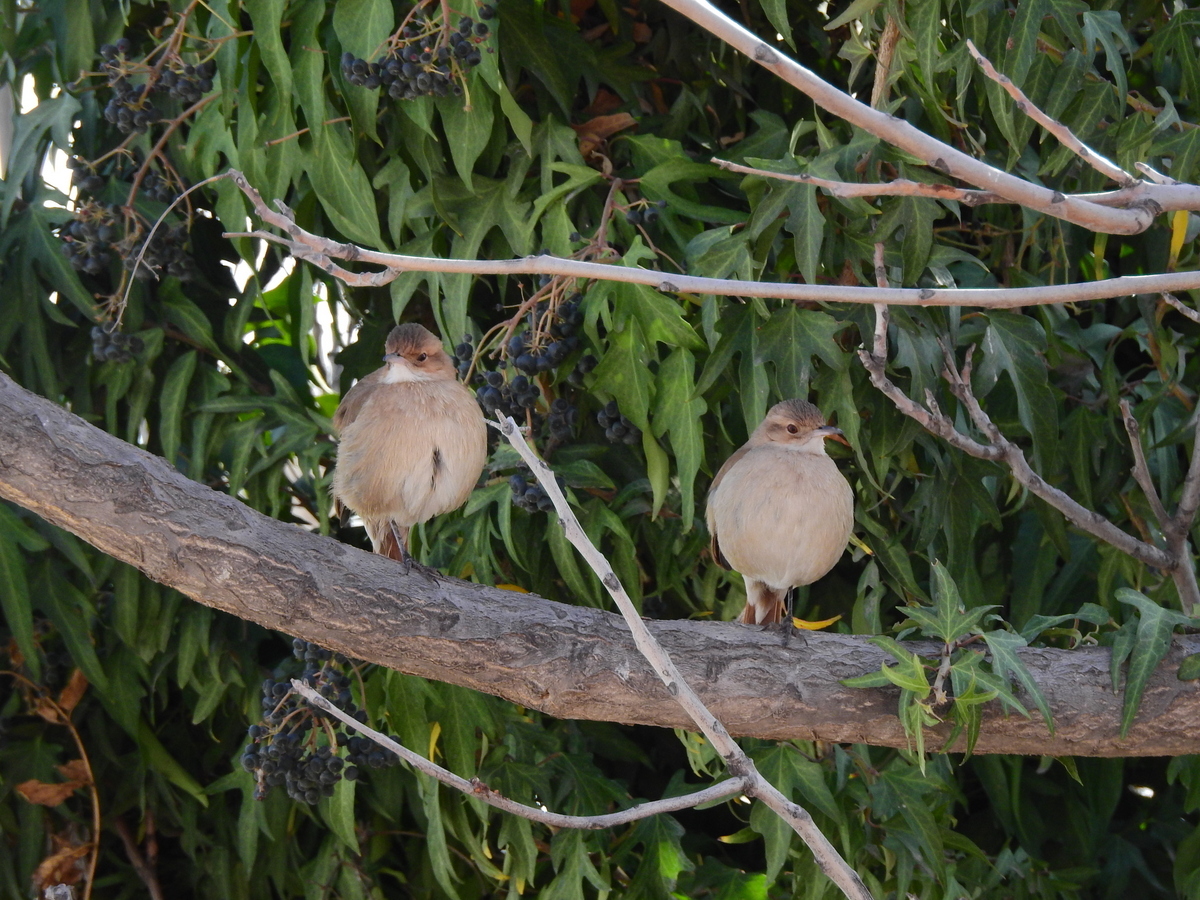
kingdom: Animalia
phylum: Chordata
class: Aves
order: Passeriformes
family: Furnariidae
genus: Furnarius
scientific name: Furnarius rufus
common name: Rufous hornero
